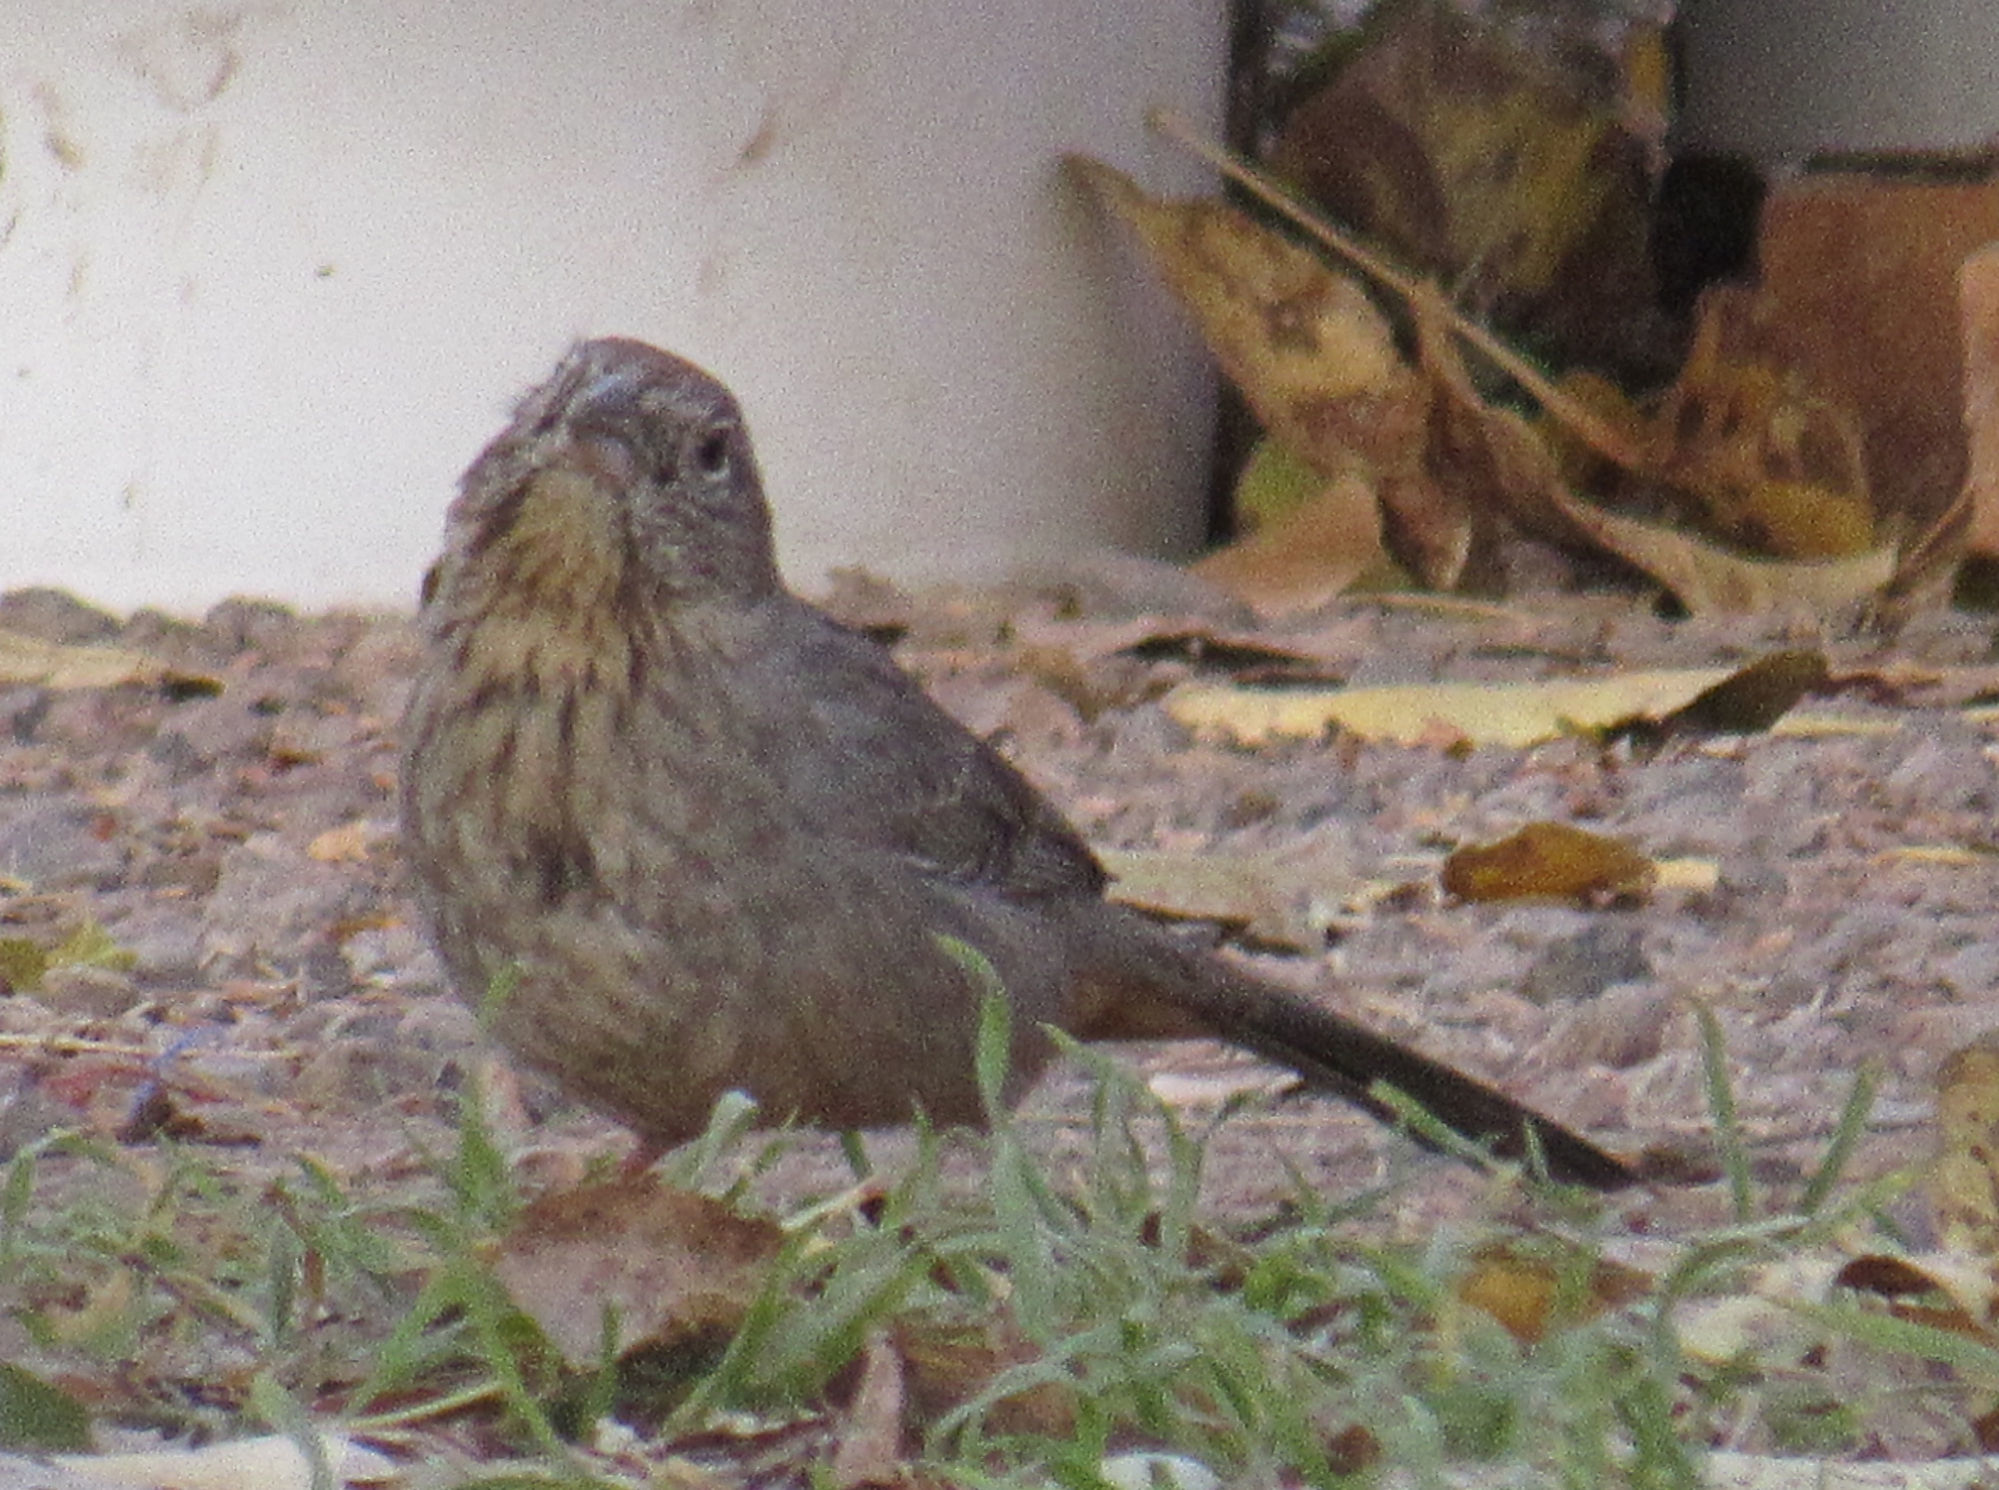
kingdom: Animalia
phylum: Chordata
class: Aves
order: Passeriformes
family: Passerellidae
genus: Melozone
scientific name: Melozone fusca
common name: Canyon towhee
